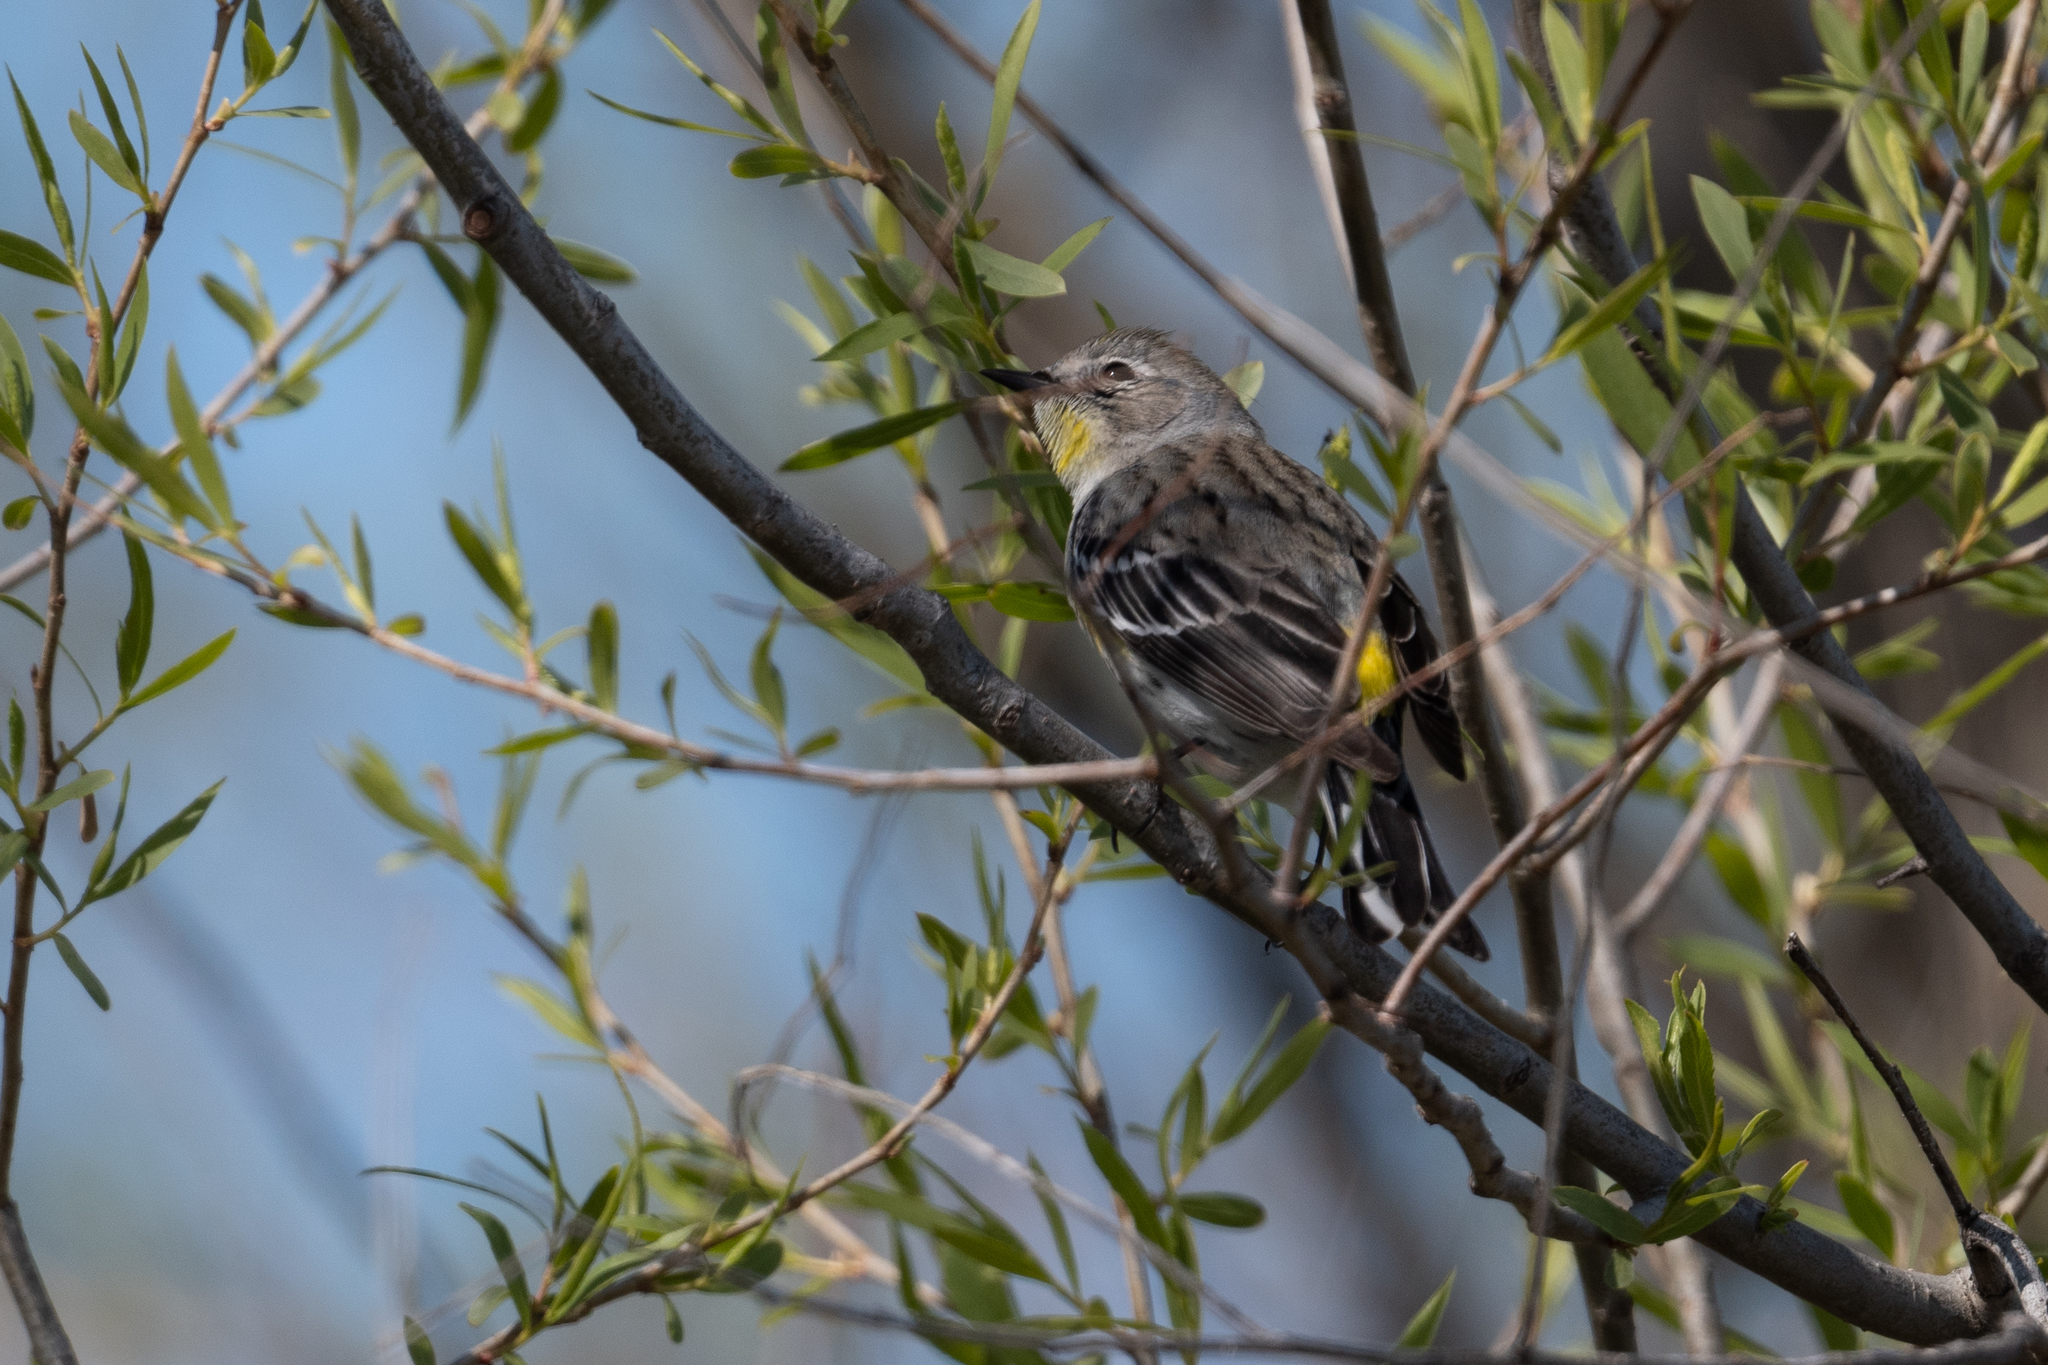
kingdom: Animalia
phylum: Chordata
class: Aves
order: Passeriformes
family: Parulidae
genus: Setophaga
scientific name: Setophaga coronata
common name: Myrtle warbler
